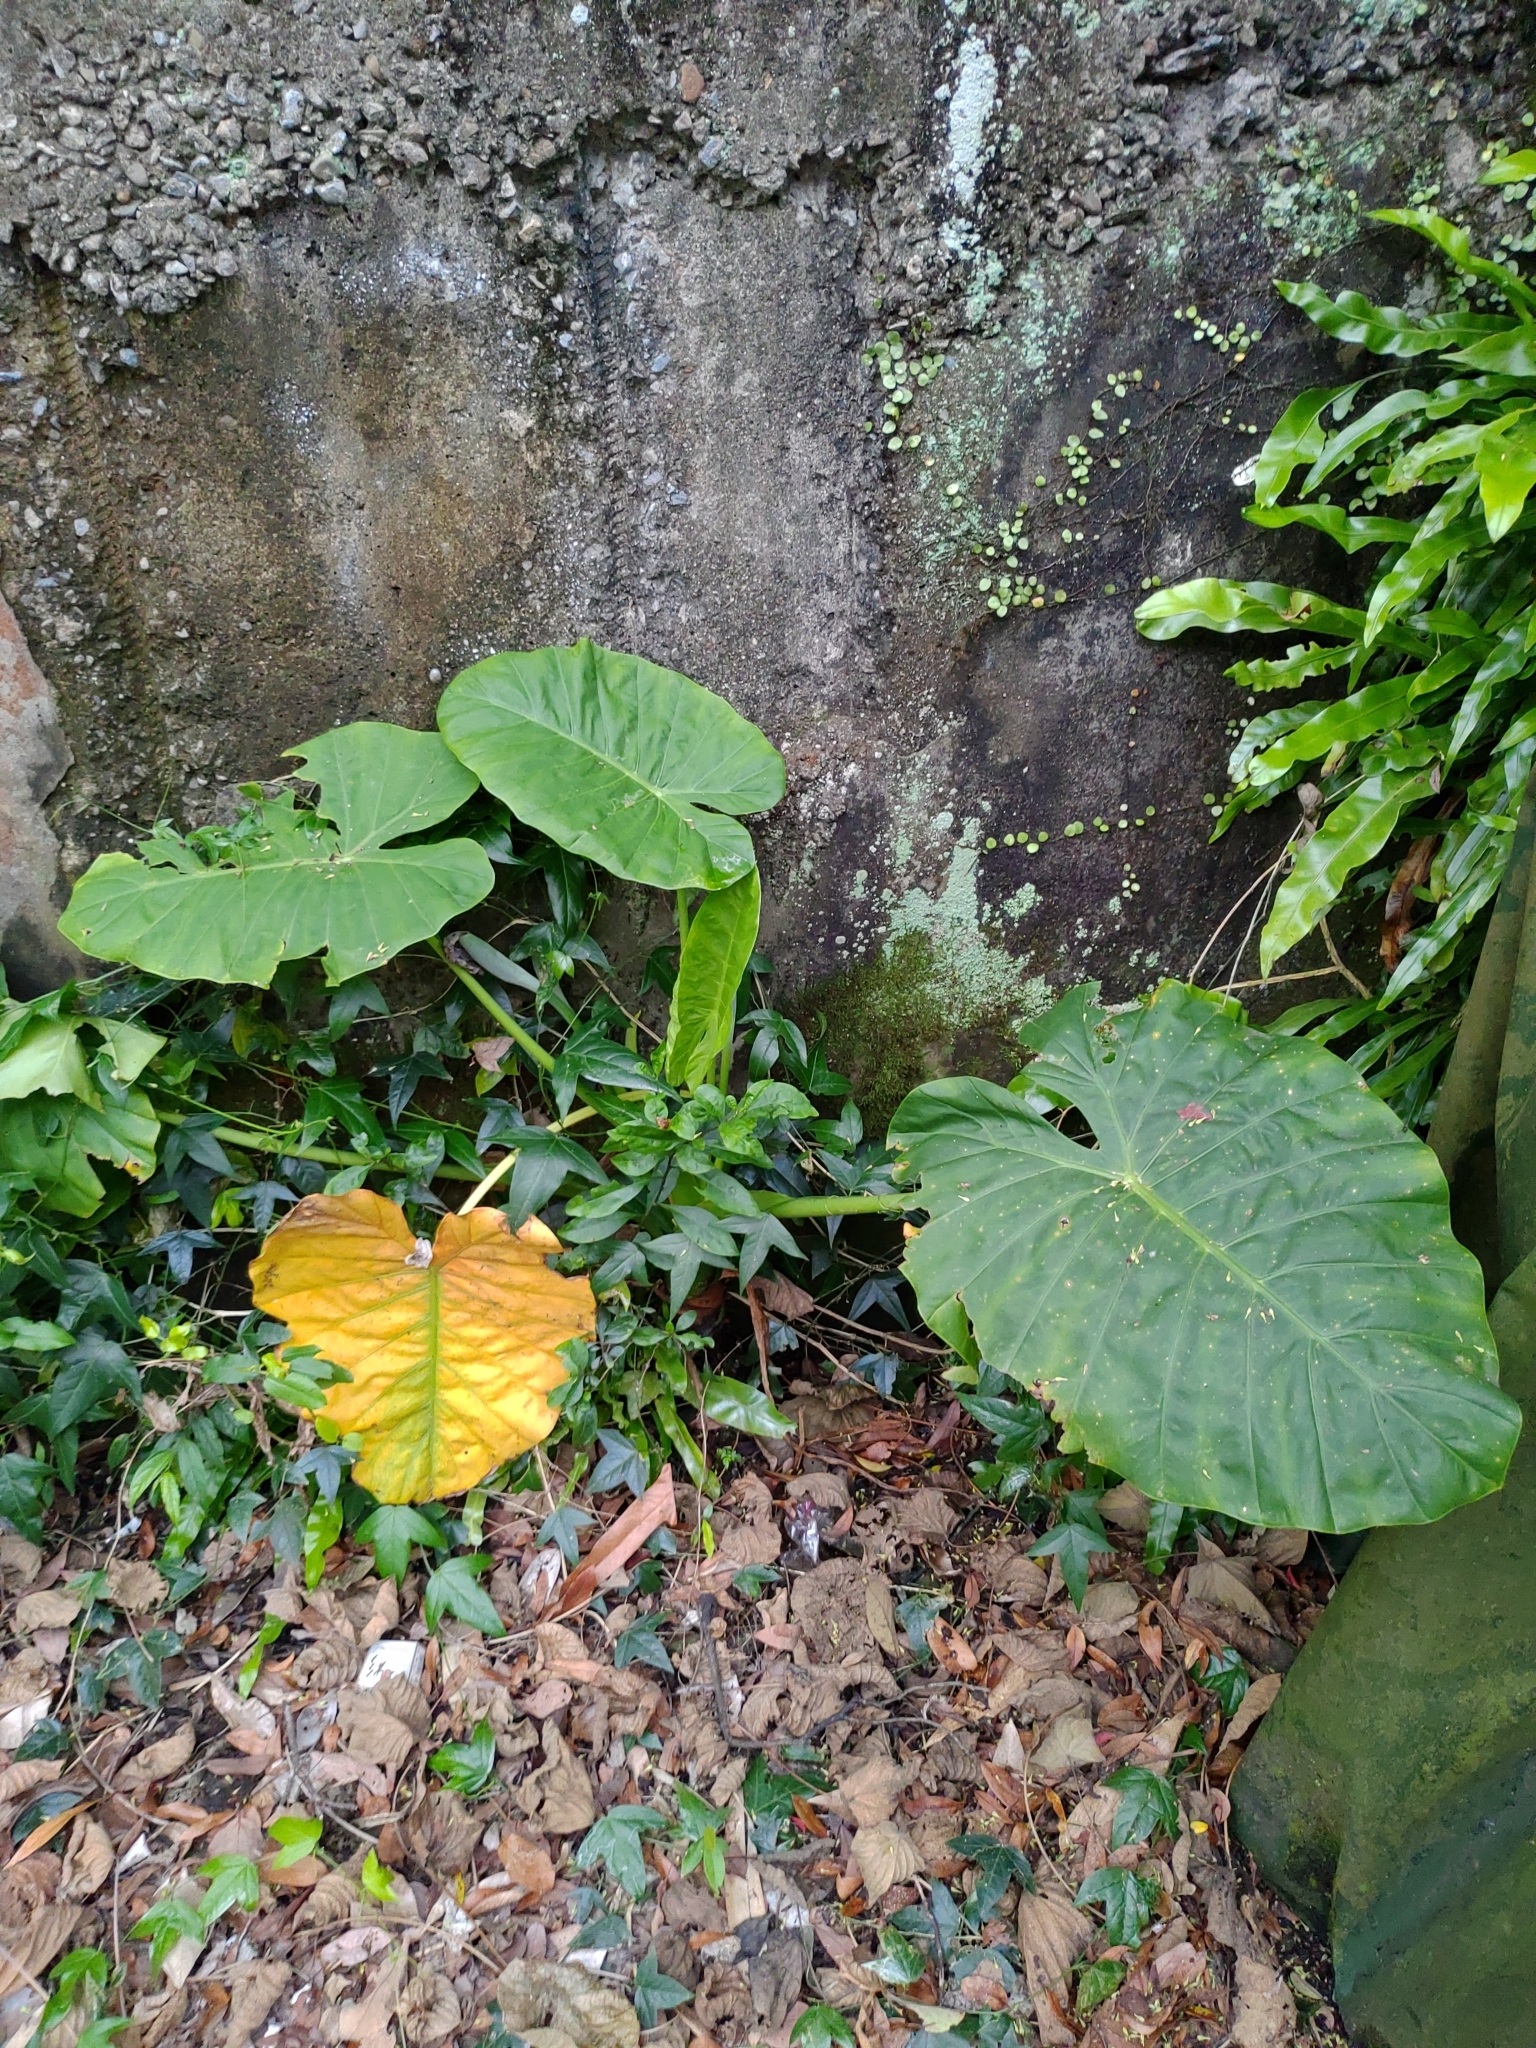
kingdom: Plantae
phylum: Tracheophyta
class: Liliopsida
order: Alismatales
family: Araceae
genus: Alocasia
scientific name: Alocasia odora
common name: Asian taro
